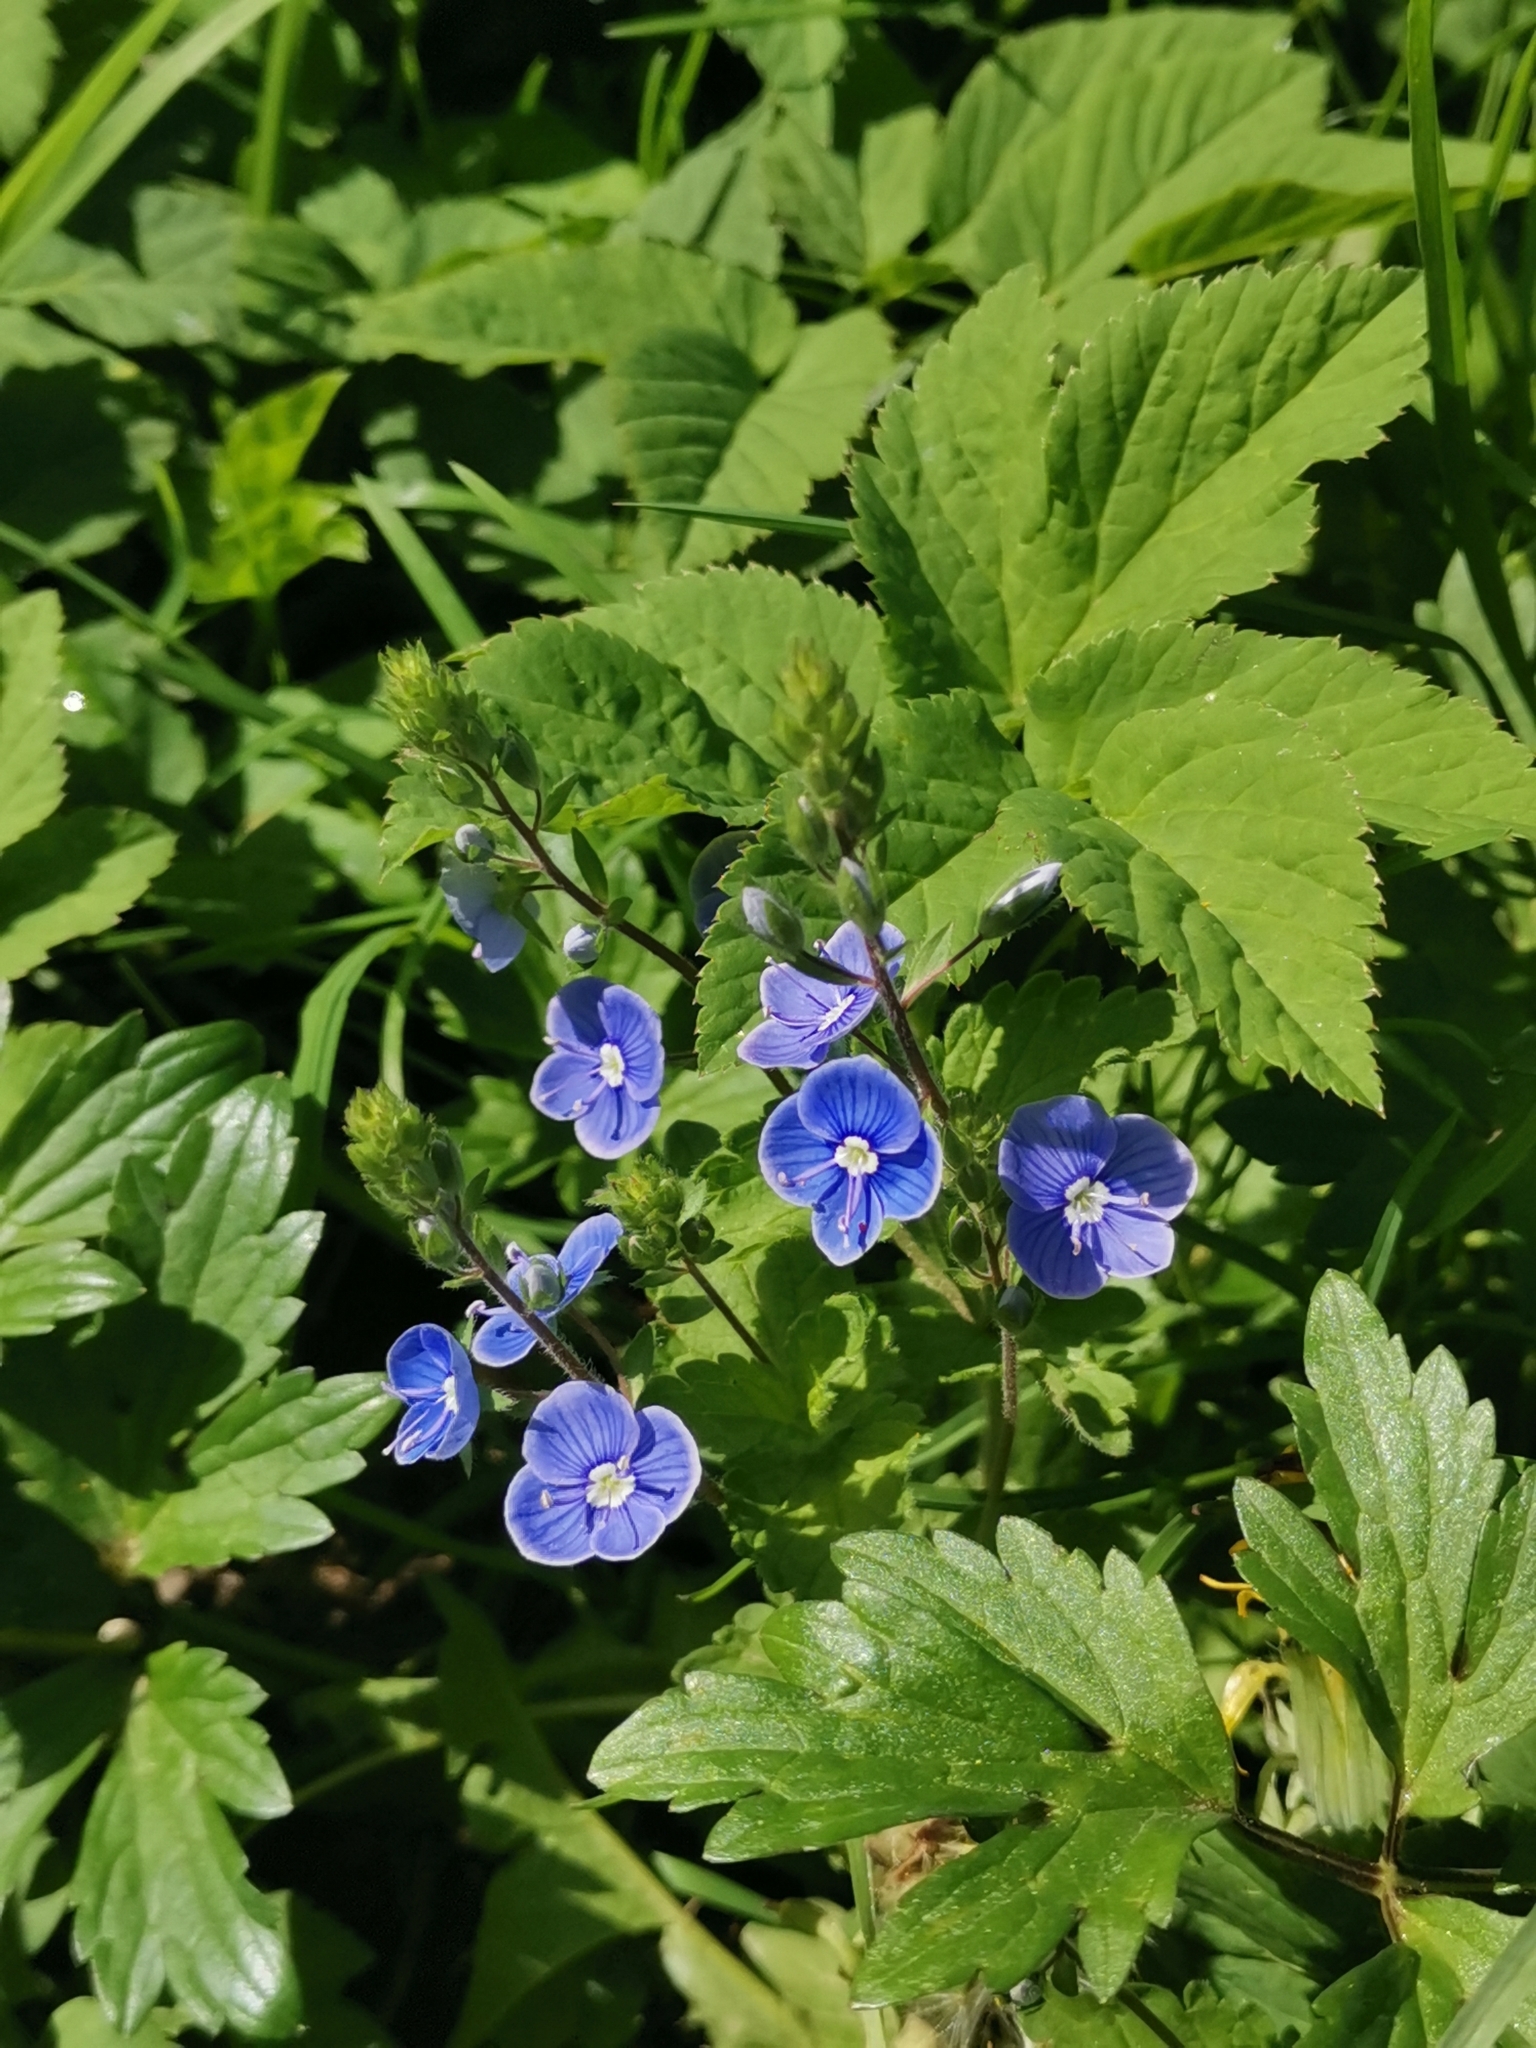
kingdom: Plantae
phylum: Tracheophyta
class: Magnoliopsida
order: Lamiales
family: Plantaginaceae
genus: Veronica
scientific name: Veronica chamaedrys
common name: Germander speedwell
